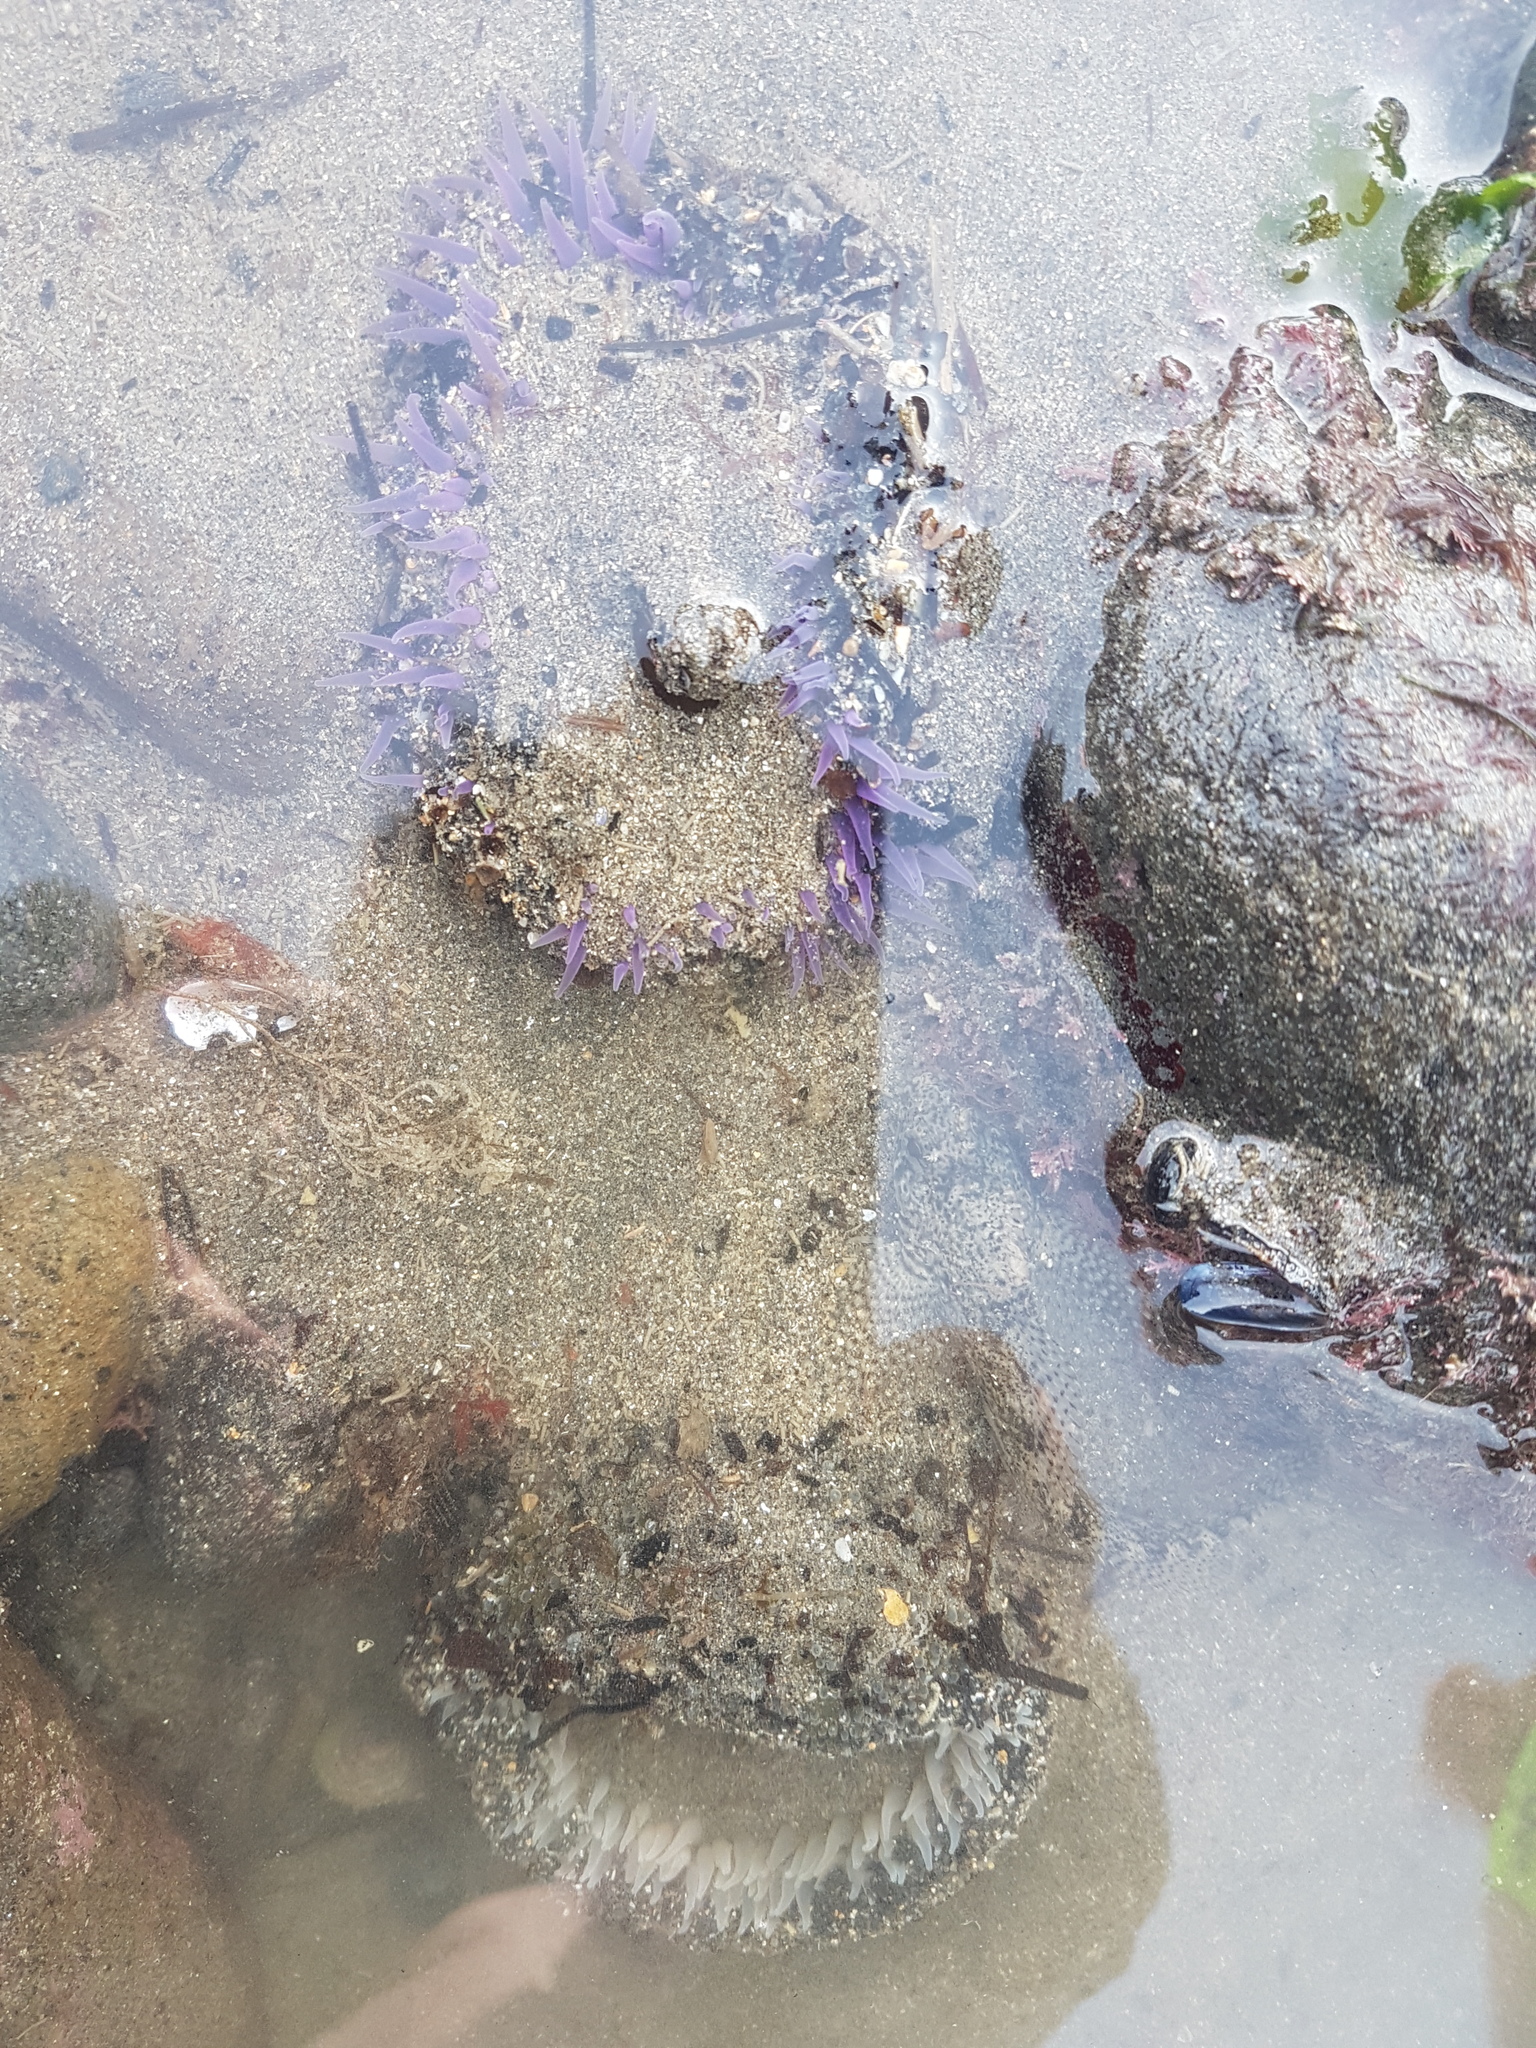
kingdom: Animalia
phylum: Cnidaria
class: Anthozoa
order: Actiniaria
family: Actiniidae
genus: Oulactis
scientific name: Oulactis magna
